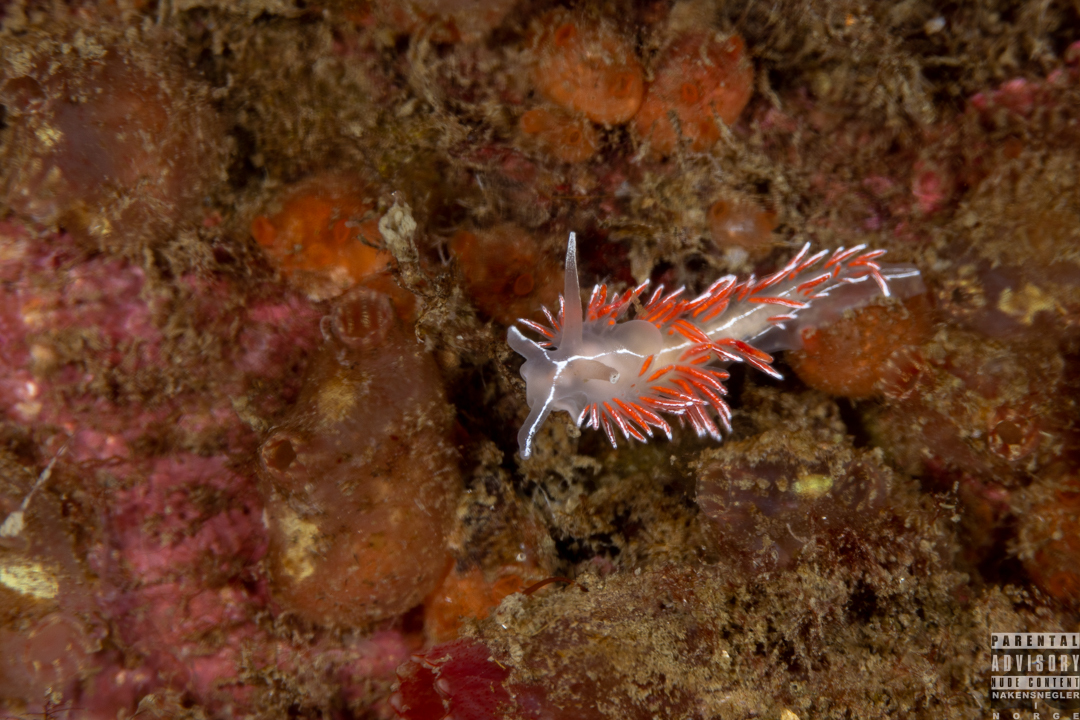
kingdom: Animalia
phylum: Mollusca
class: Gastropoda
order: Nudibranchia
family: Coryphellidae
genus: Coryphella
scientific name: Coryphella lineata
